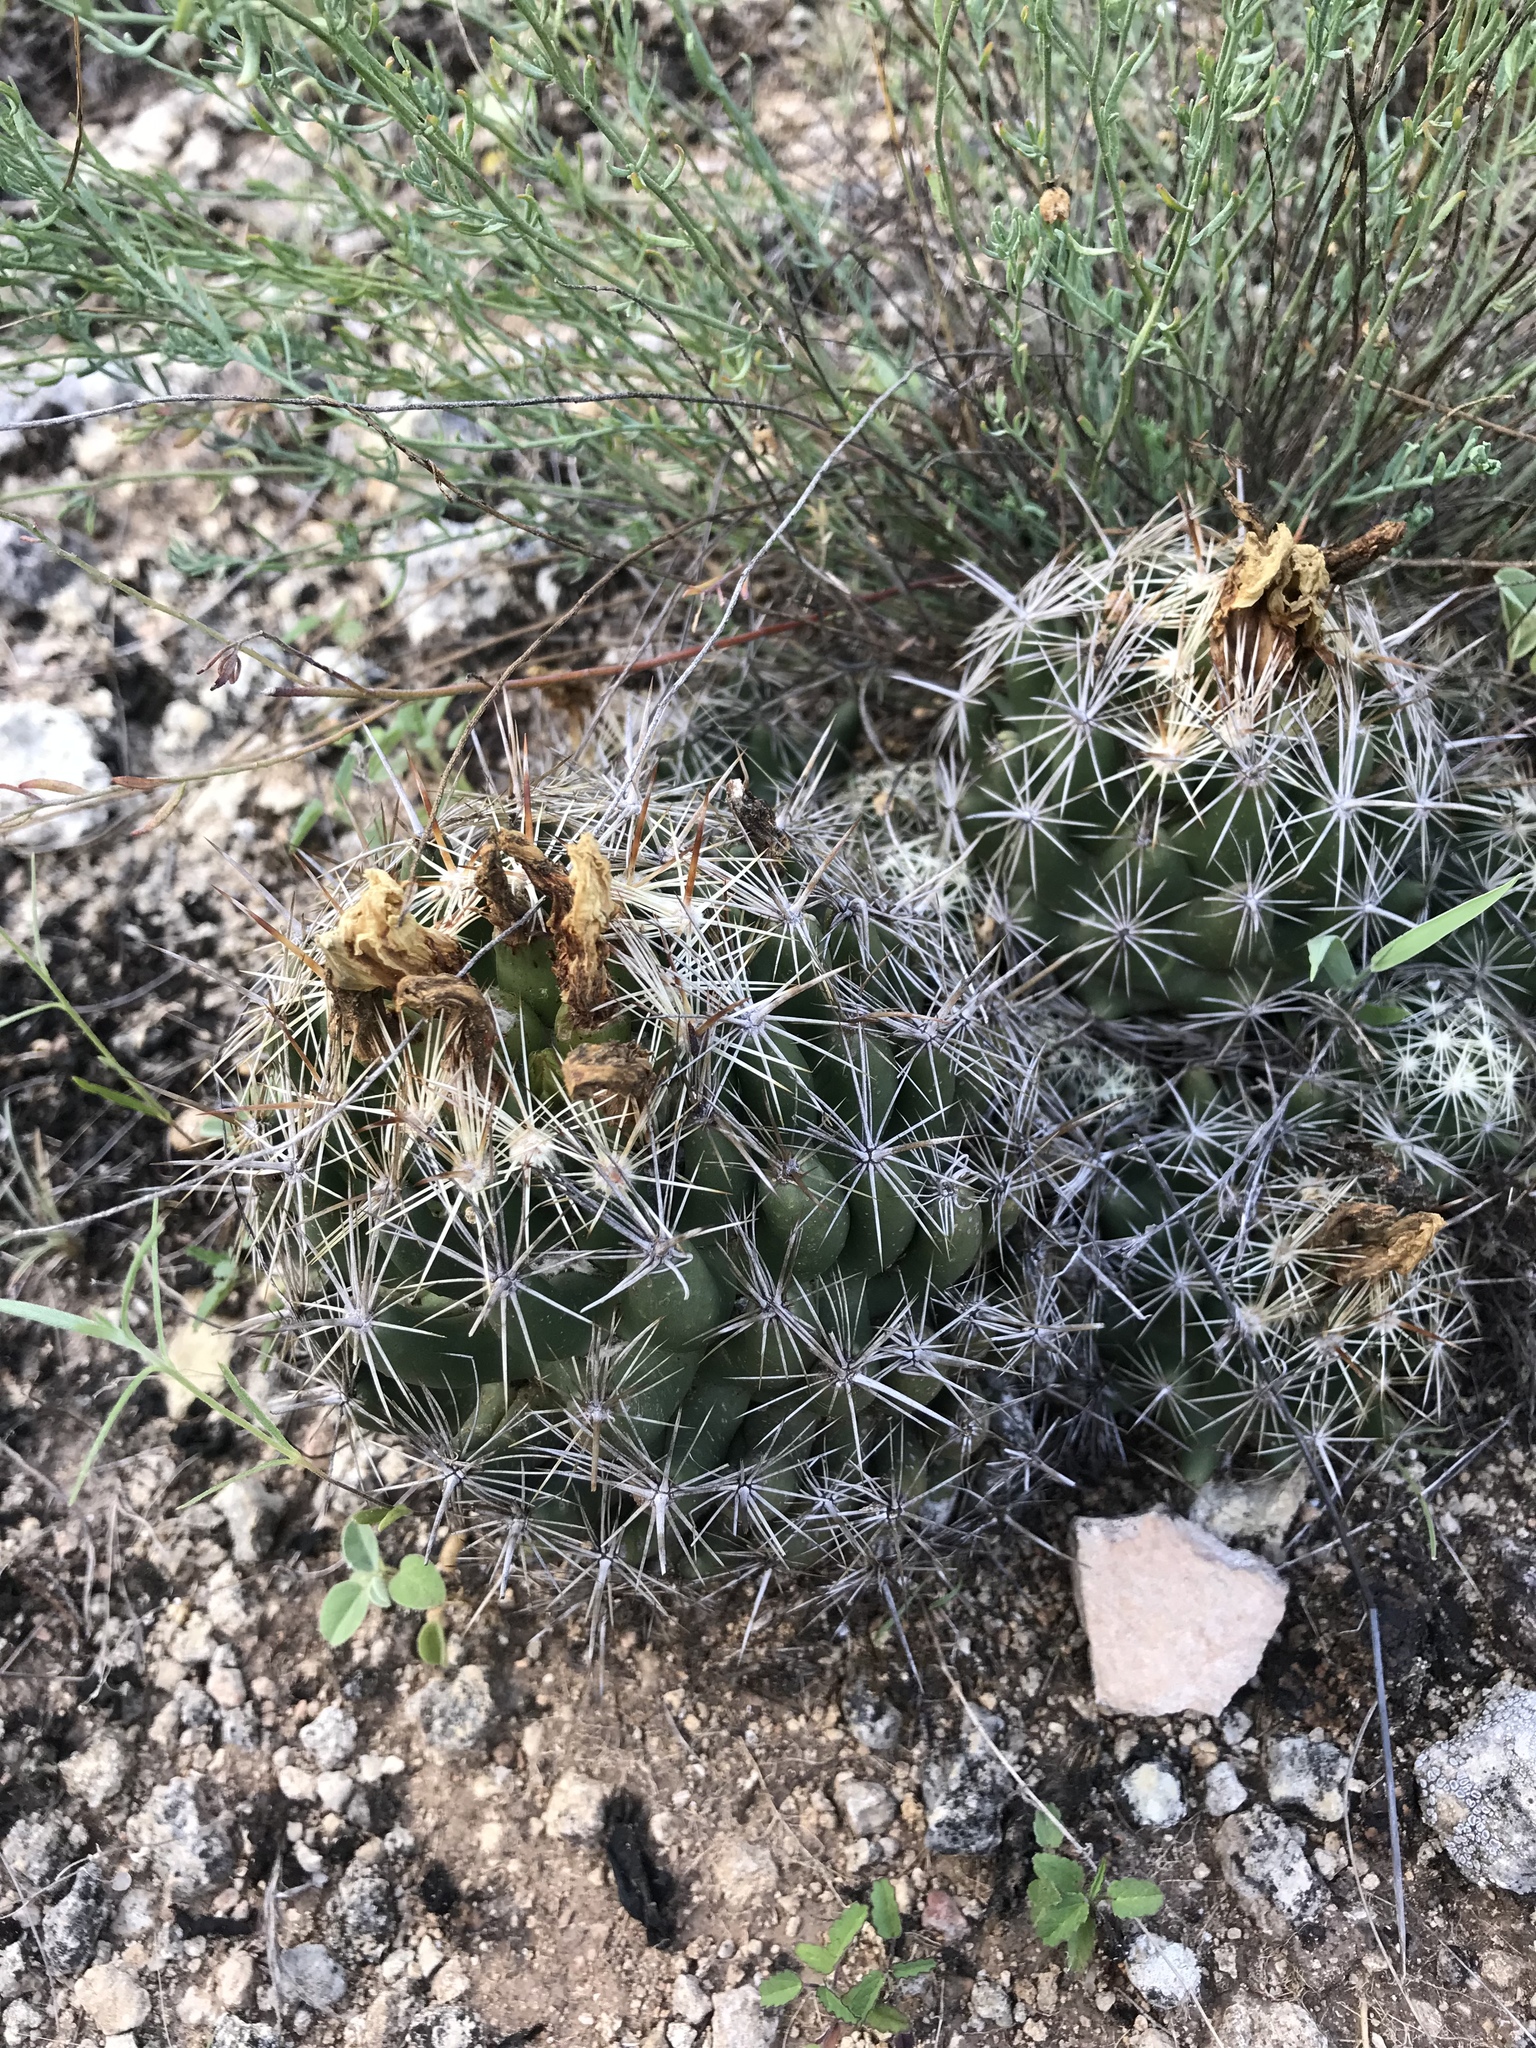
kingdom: Plantae
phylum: Tracheophyta
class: Magnoliopsida
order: Caryophyllales
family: Cactaceae
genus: Coryphantha
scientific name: Coryphantha sulcata
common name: Finger cactus
